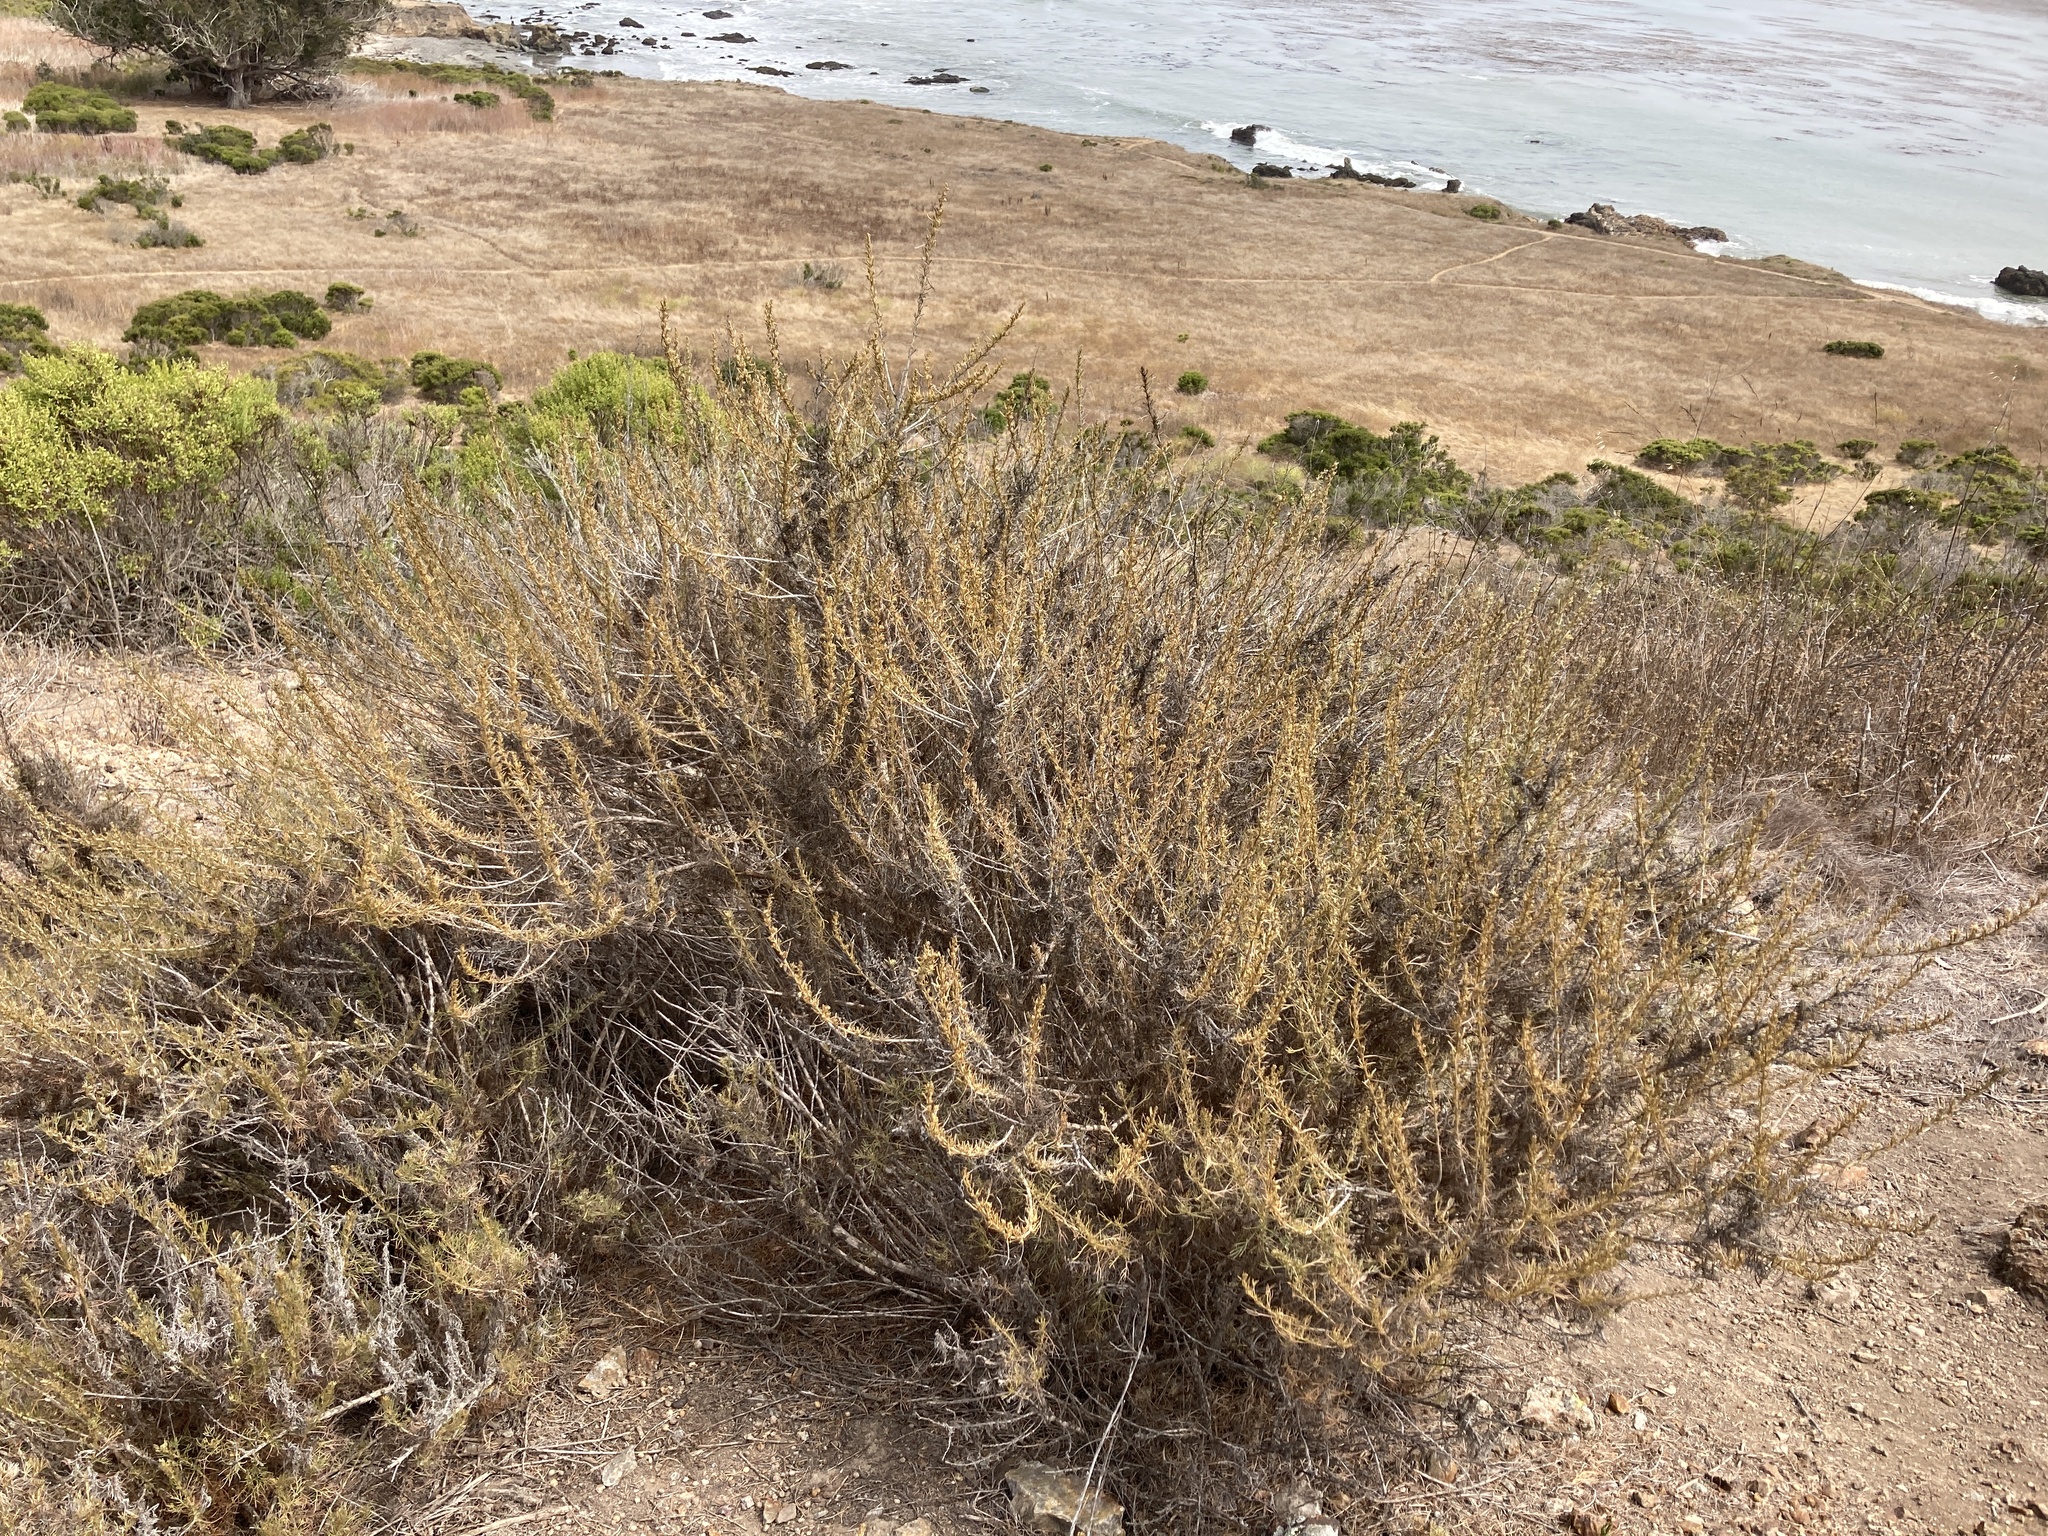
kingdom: Plantae
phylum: Tracheophyta
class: Magnoliopsida
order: Asterales
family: Asteraceae
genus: Artemisia
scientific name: Artemisia californica
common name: California sagebrush
